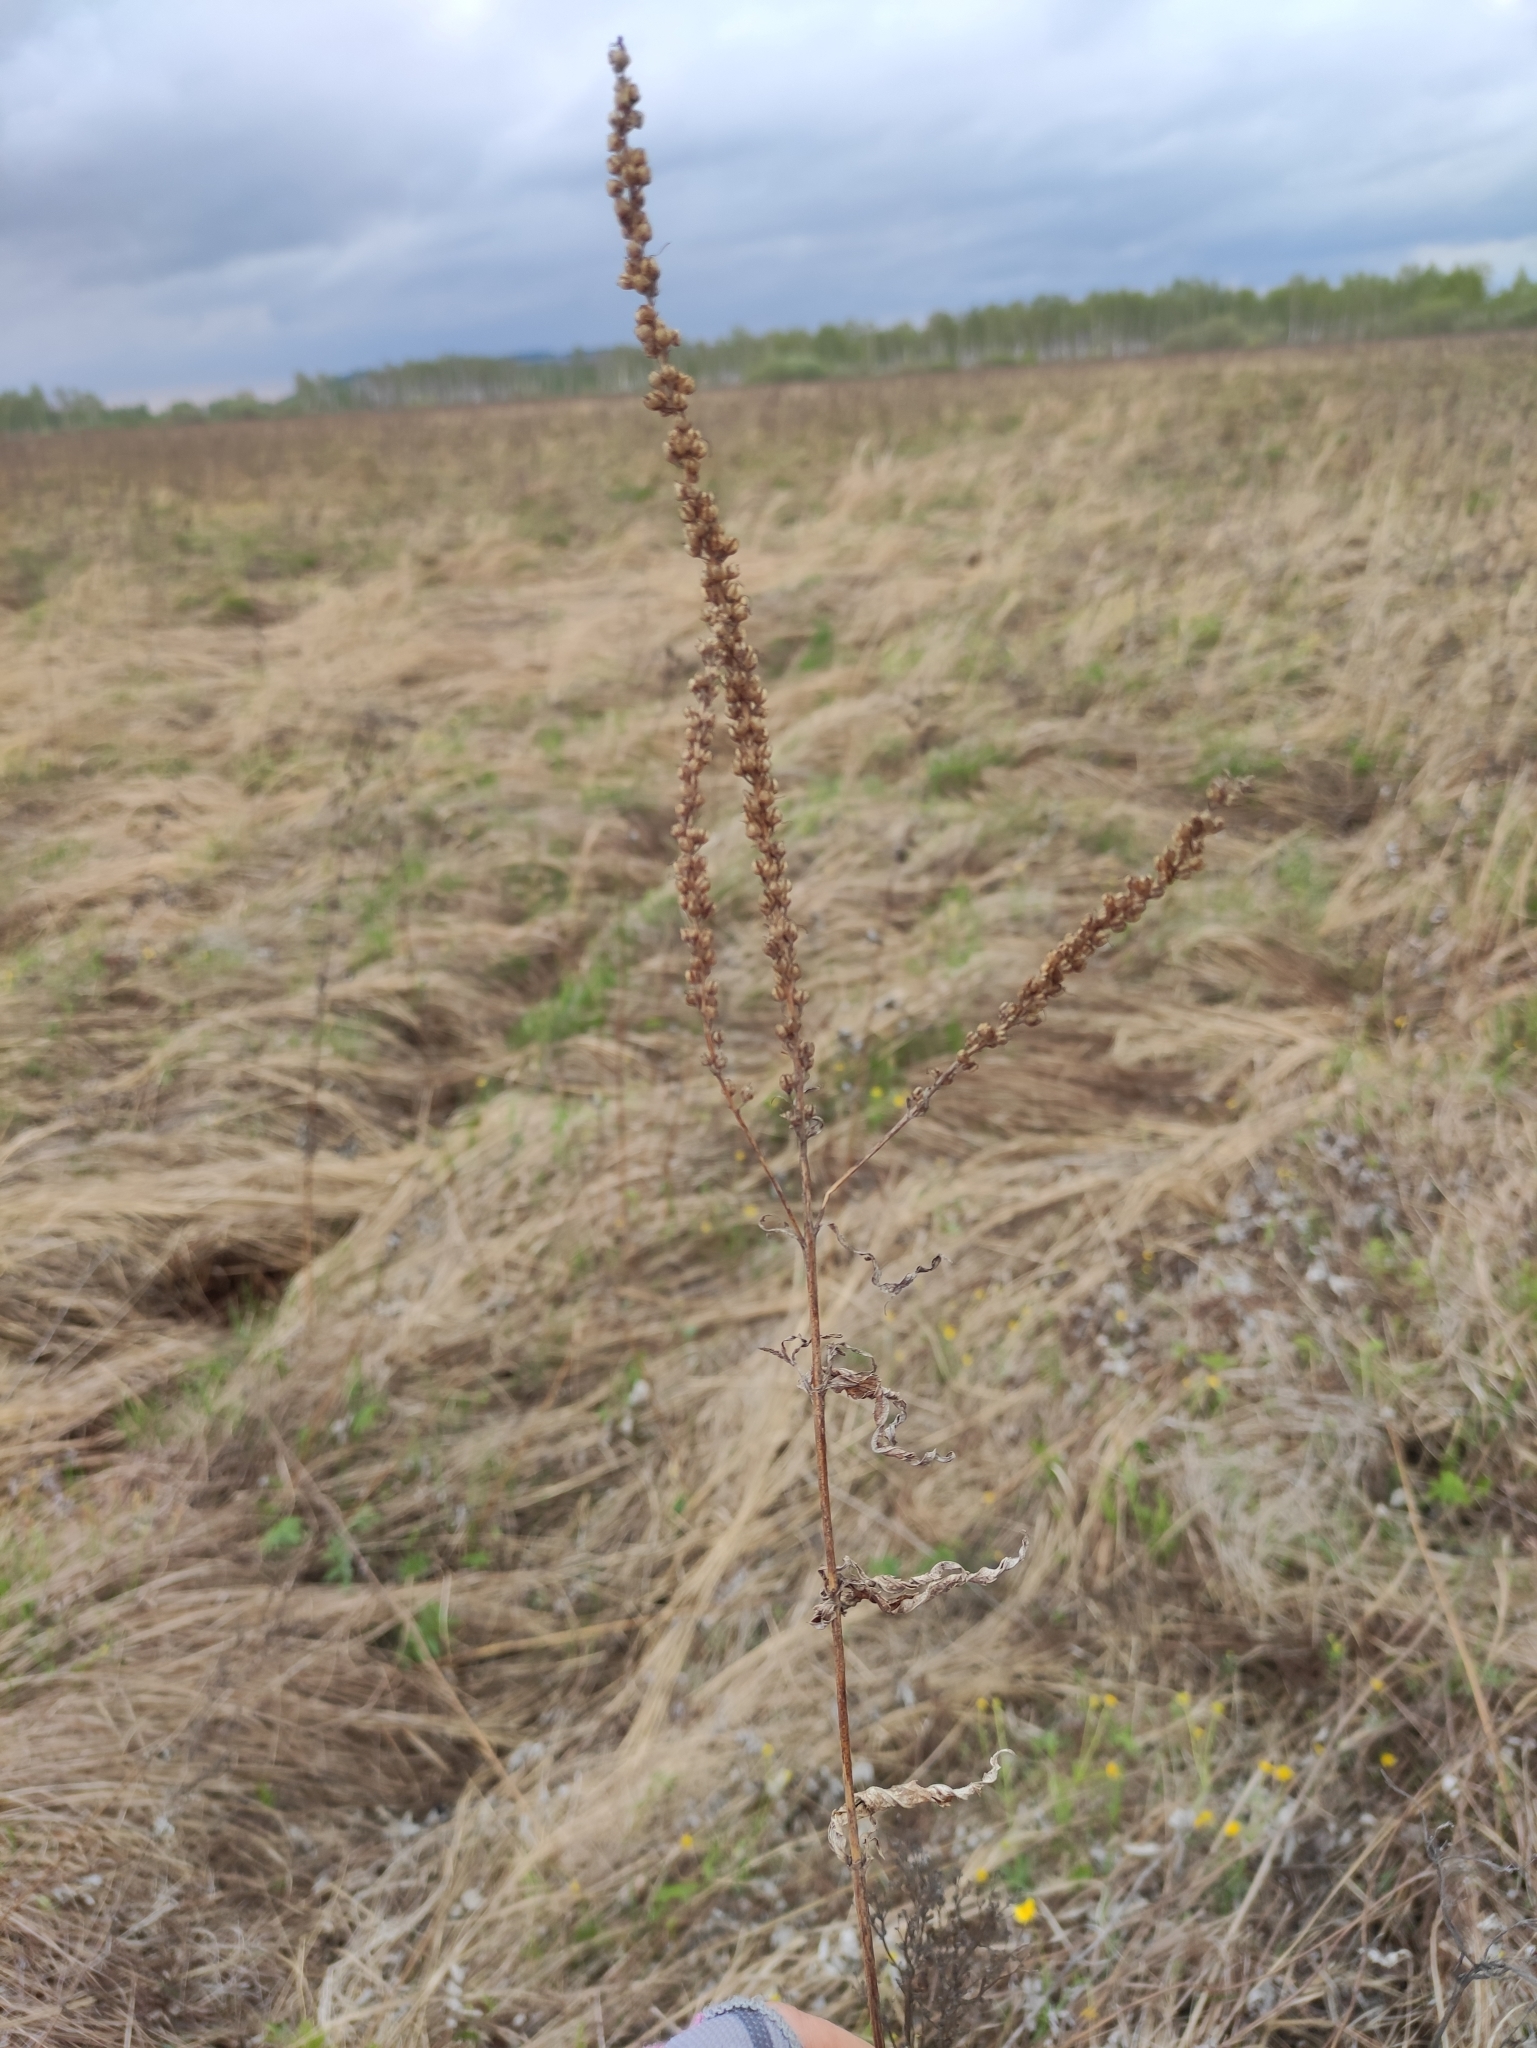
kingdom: Plantae
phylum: Tracheophyta
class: Magnoliopsida
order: Lamiales
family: Plantaginaceae
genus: Veronica
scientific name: Veronica longifolia
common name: Garden speedwell
